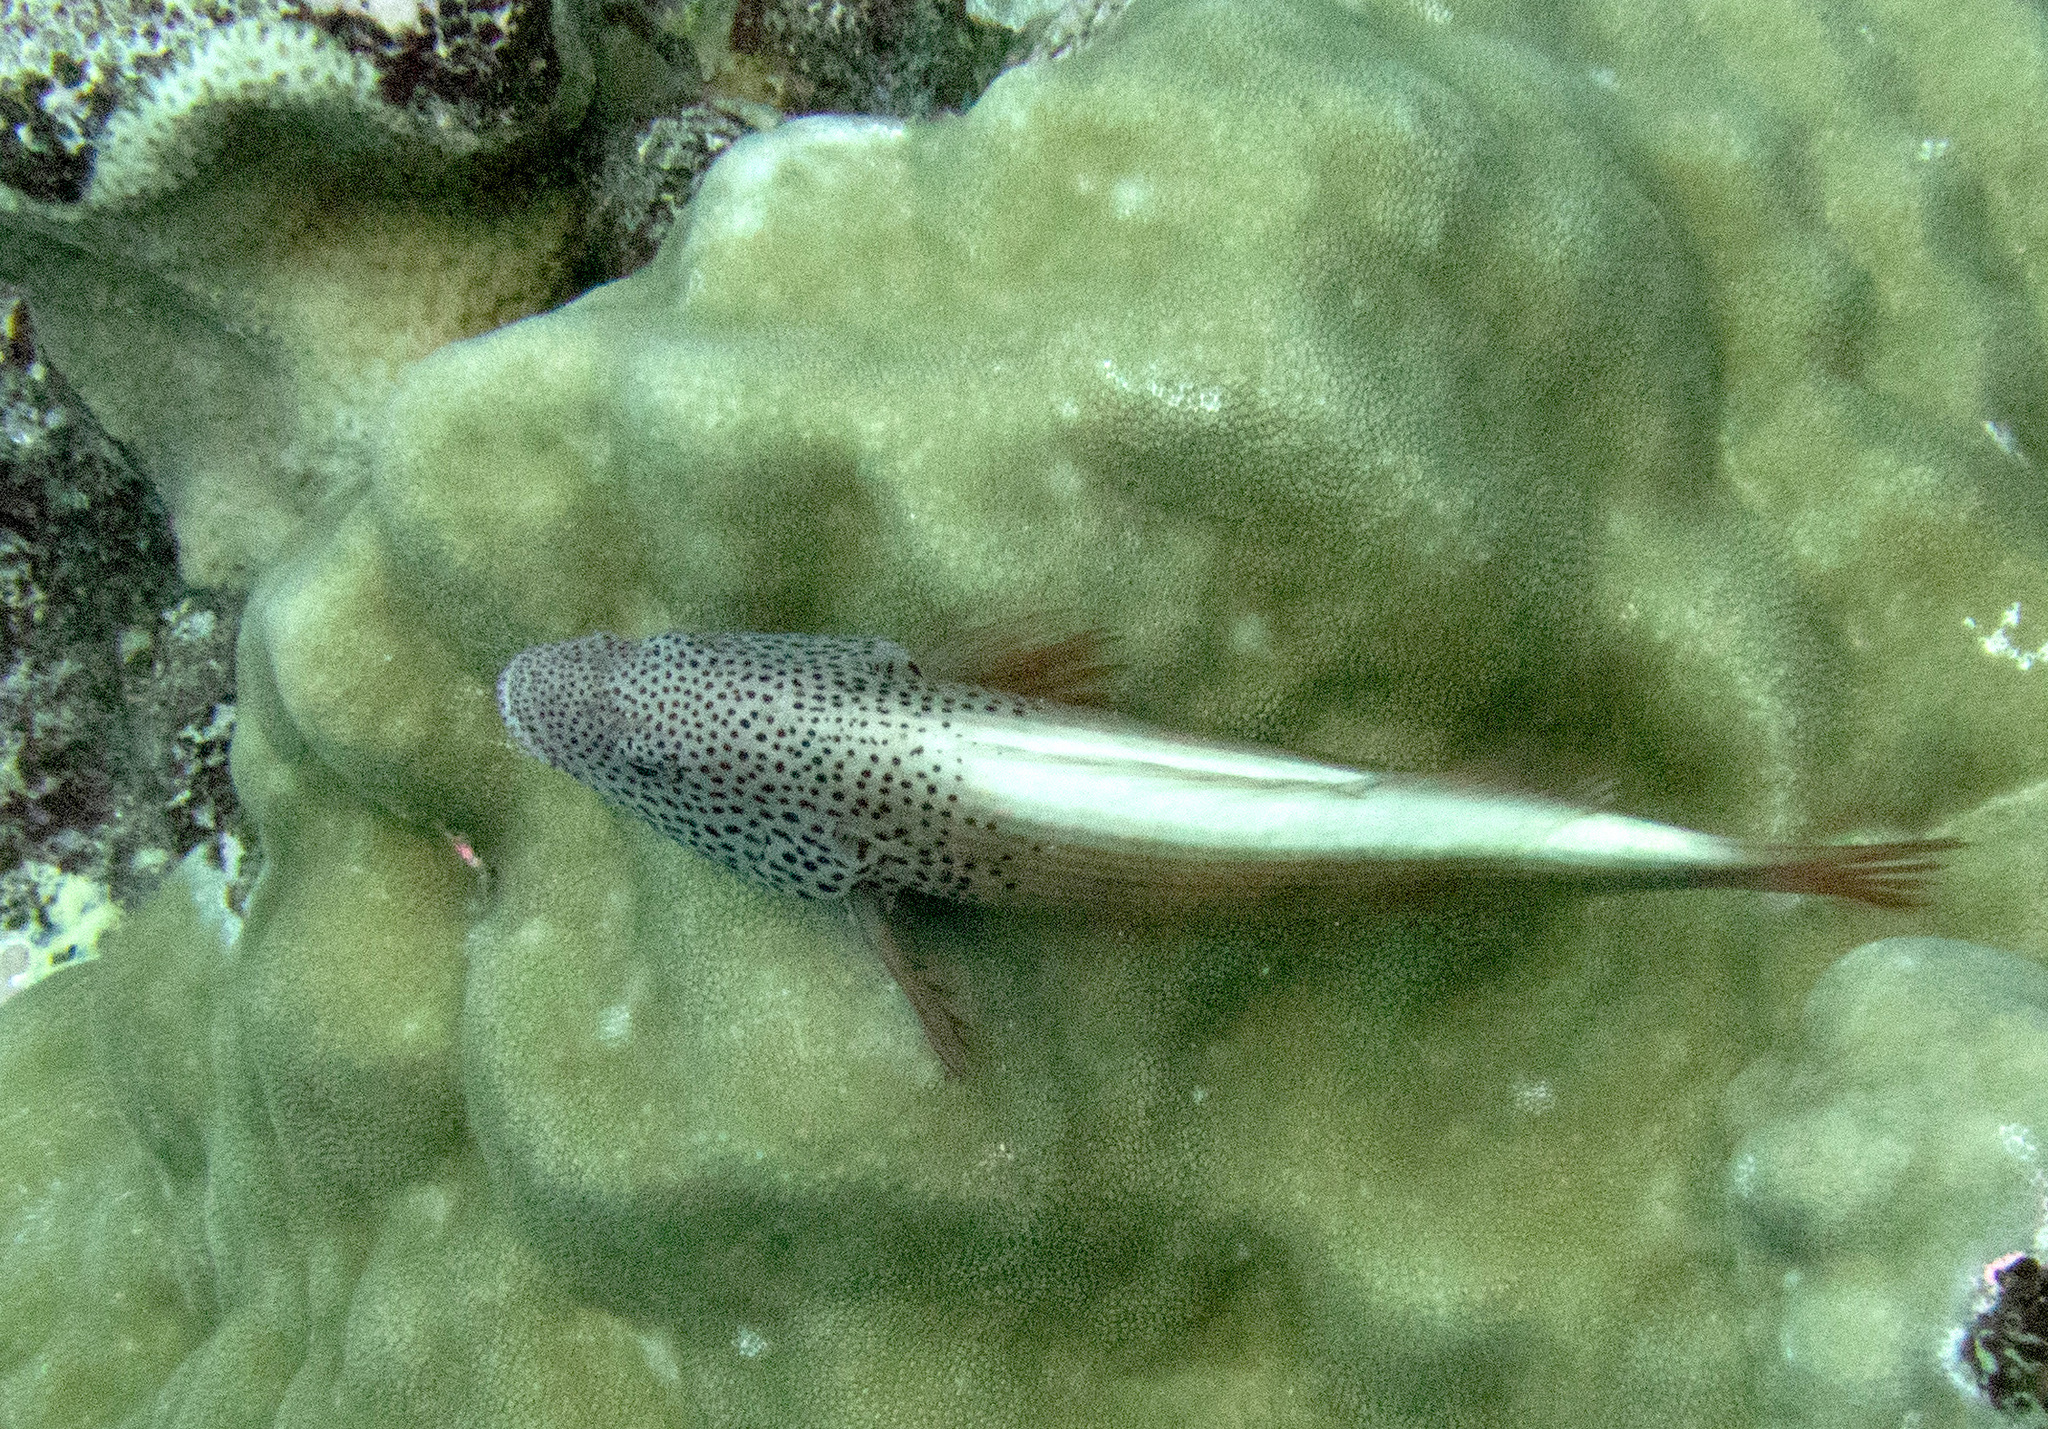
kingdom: Animalia
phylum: Chordata
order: Perciformes
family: Cirrhitidae
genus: Paracirrhites
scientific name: Paracirrhites forsteri
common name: Freckled hawkfish
